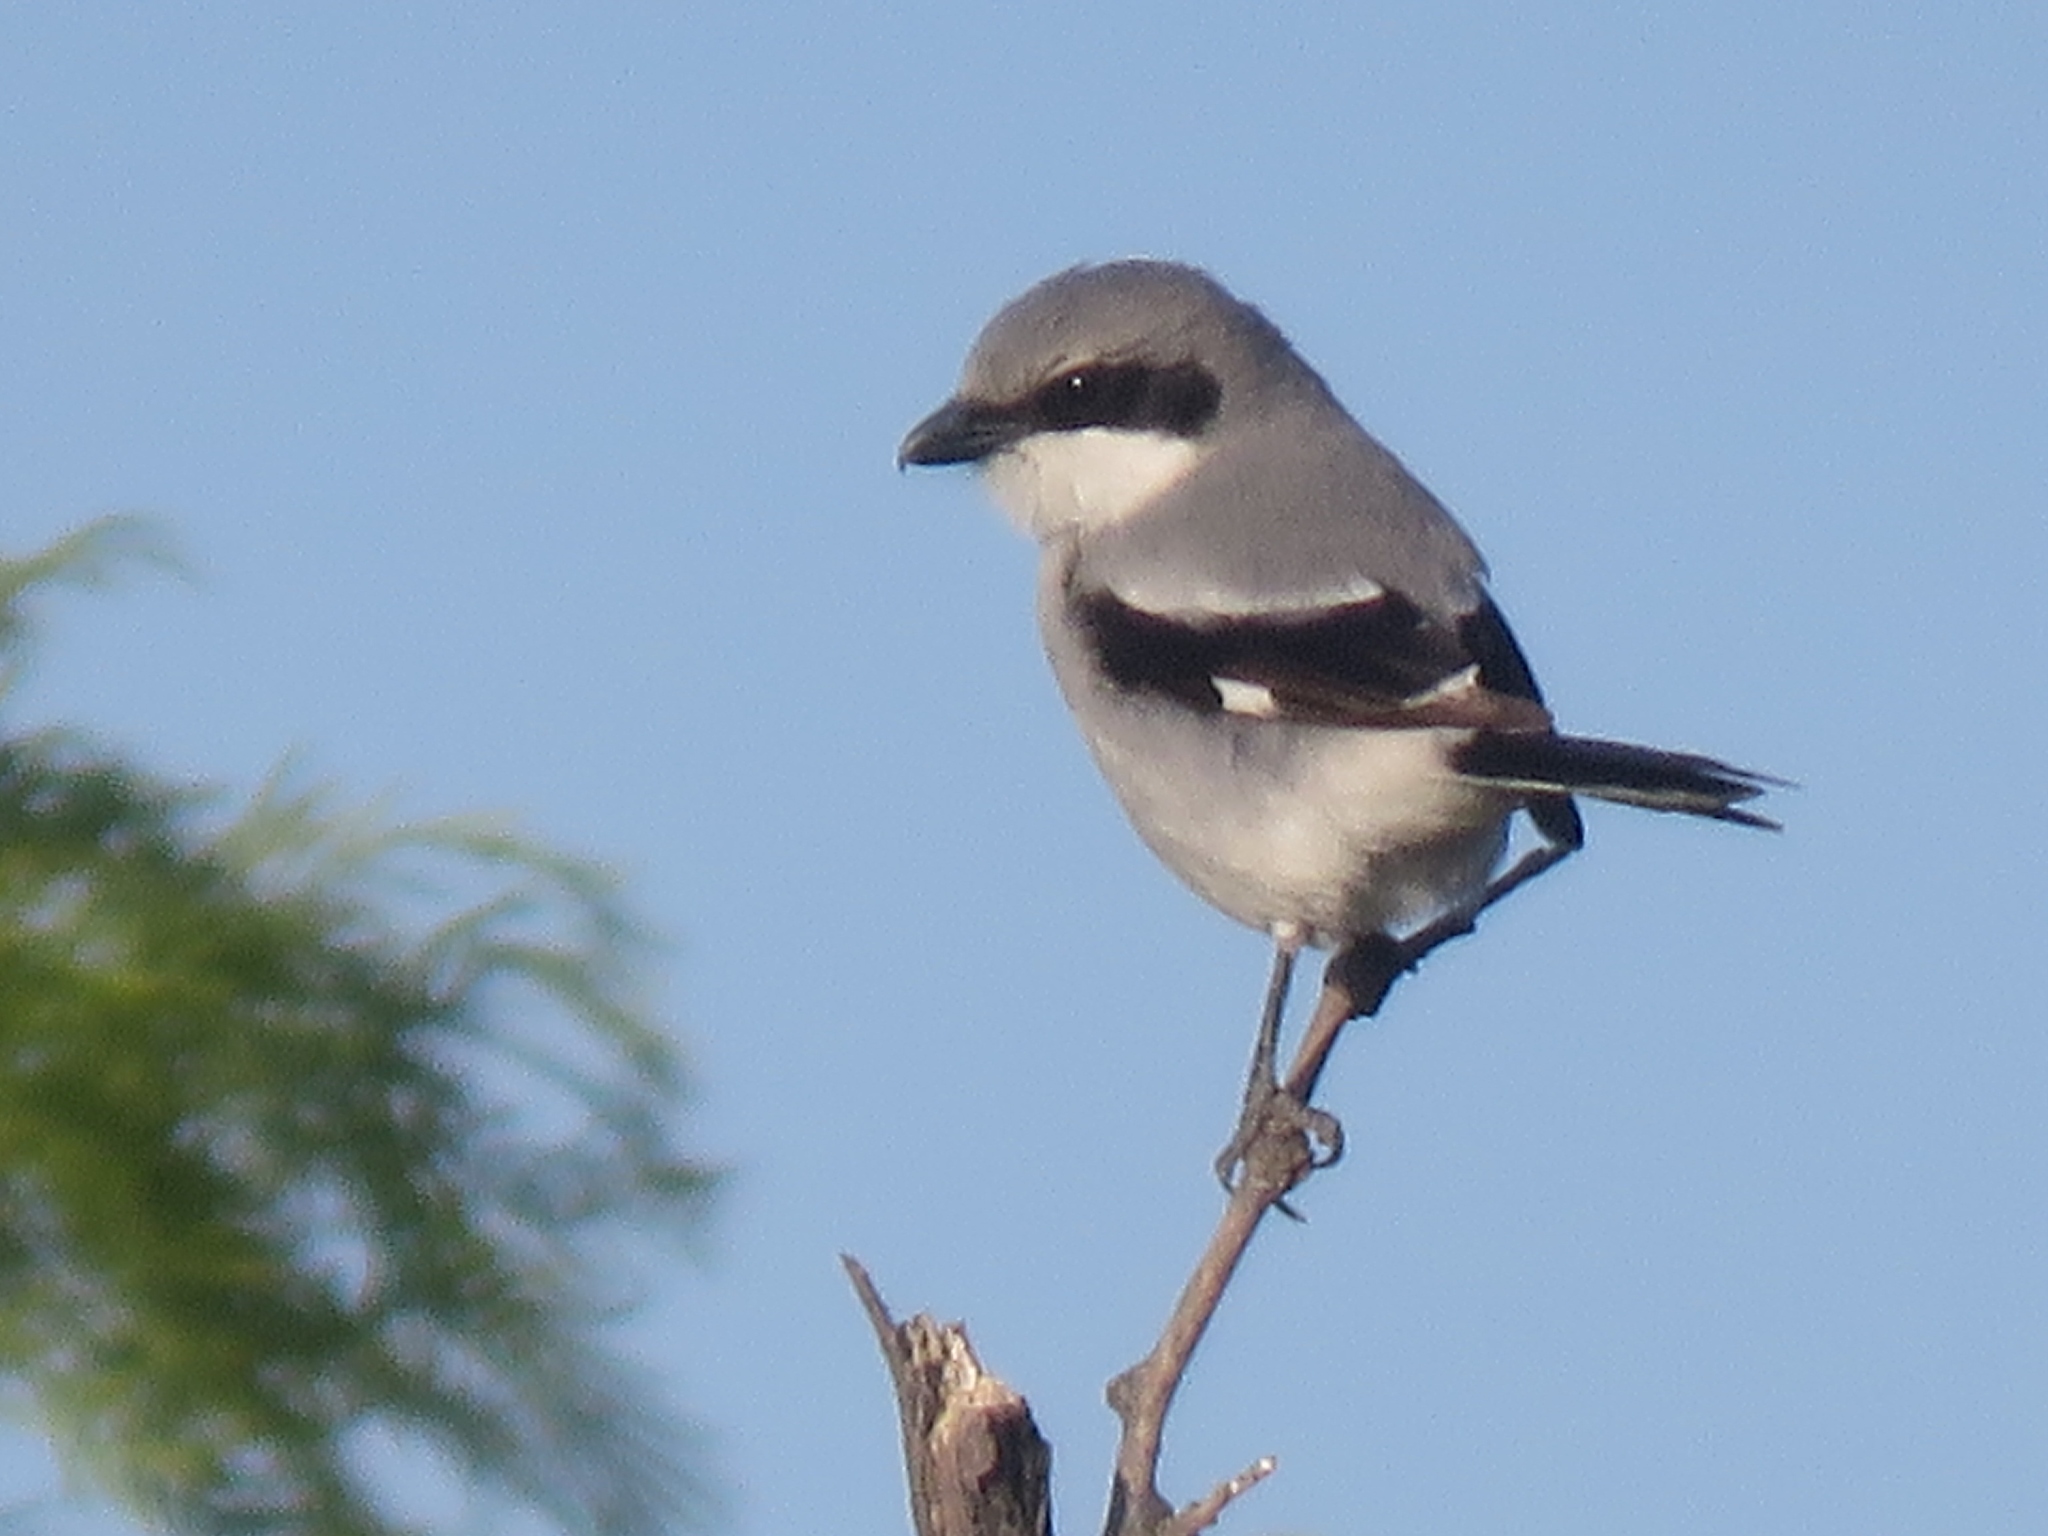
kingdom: Animalia
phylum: Chordata
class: Aves
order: Passeriformes
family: Laniidae
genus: Lanius
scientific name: Lanius ludovicianus
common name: Loggerhead shrike
